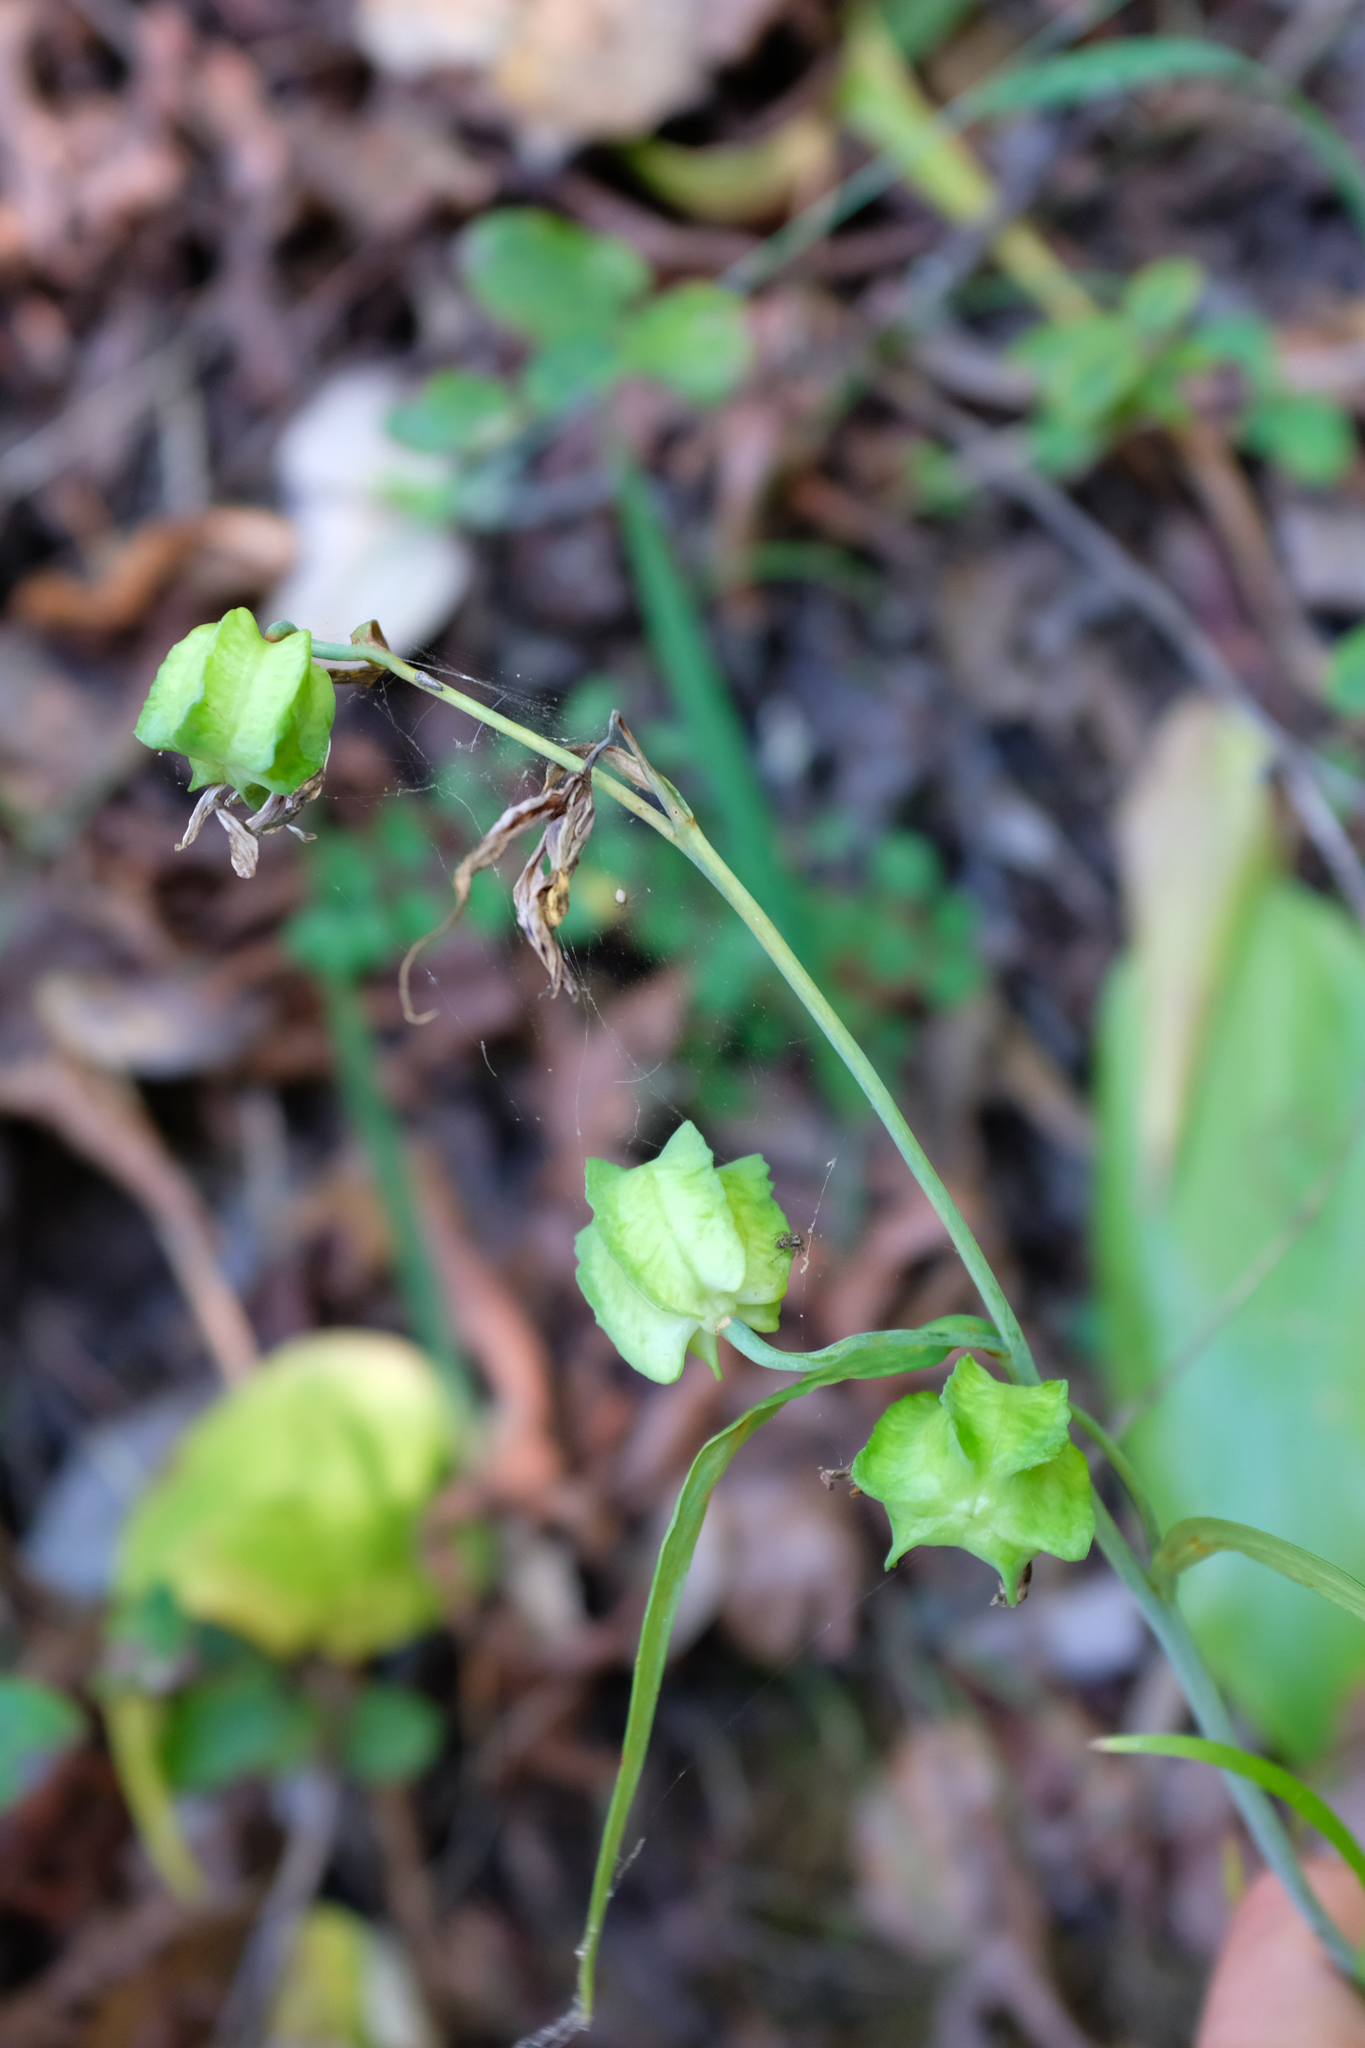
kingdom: Plantae
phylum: Tracheophyta
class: Liliopsida
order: Liliales
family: Liliaceae
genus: Fritillaria
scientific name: Fritillaria affinis
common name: Ojai fritillary
